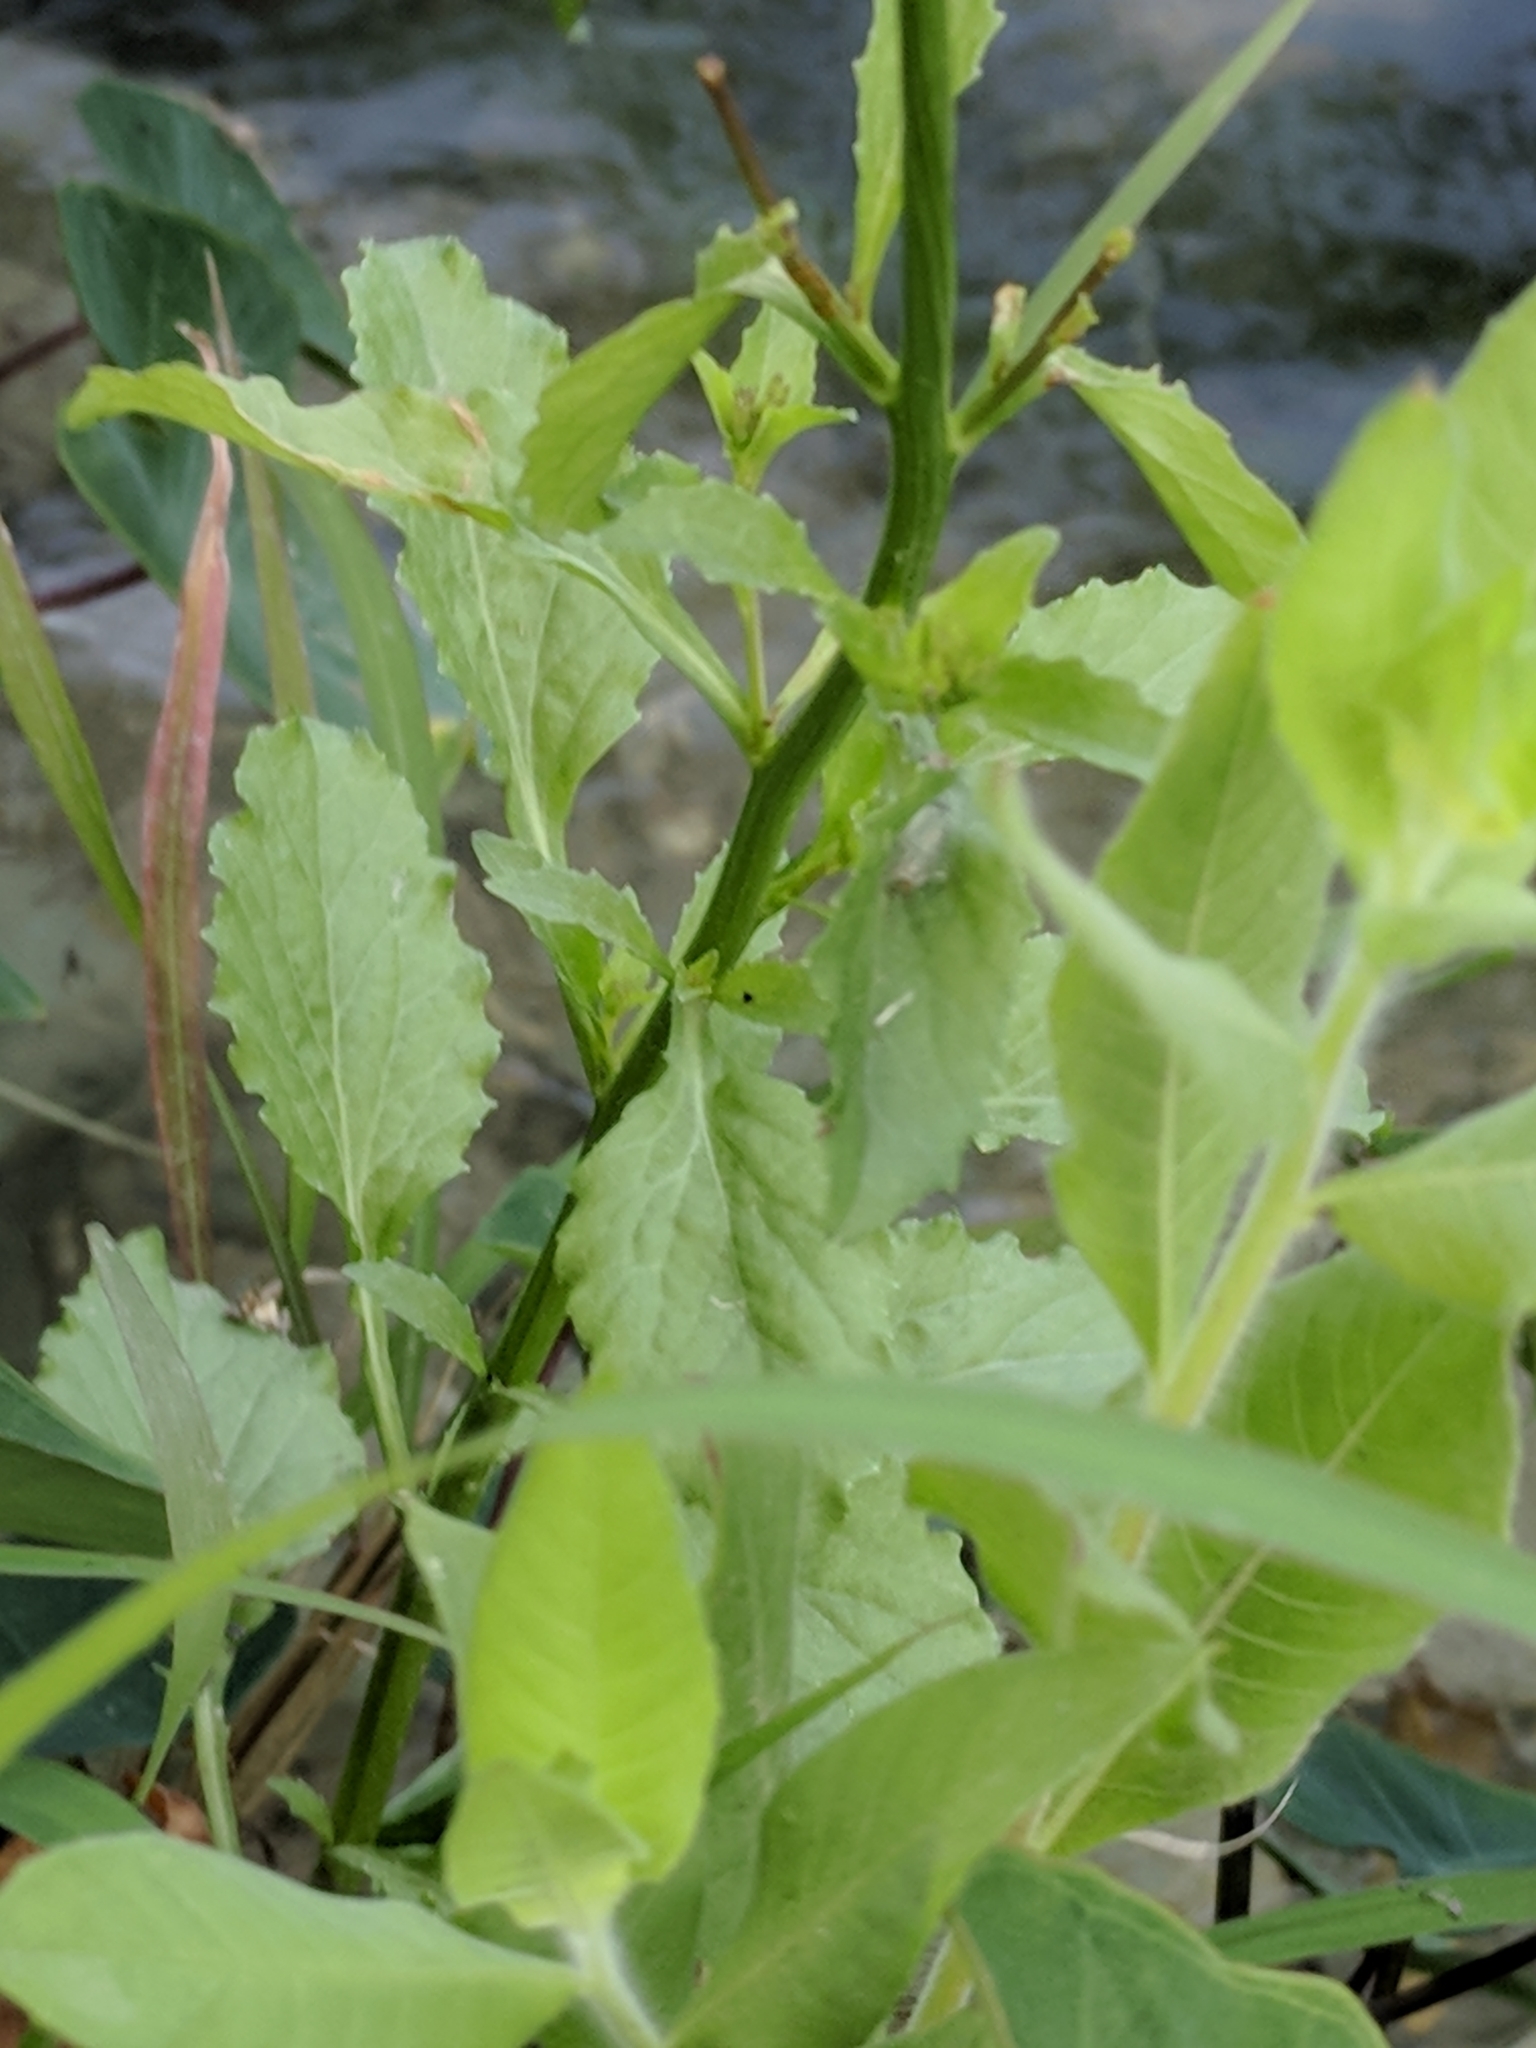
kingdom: Plantae
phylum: Tracheophyta
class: Magnoliopsida
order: Asterales
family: Campanulaceae
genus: Lobelia
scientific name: Lobelia berlandieri
